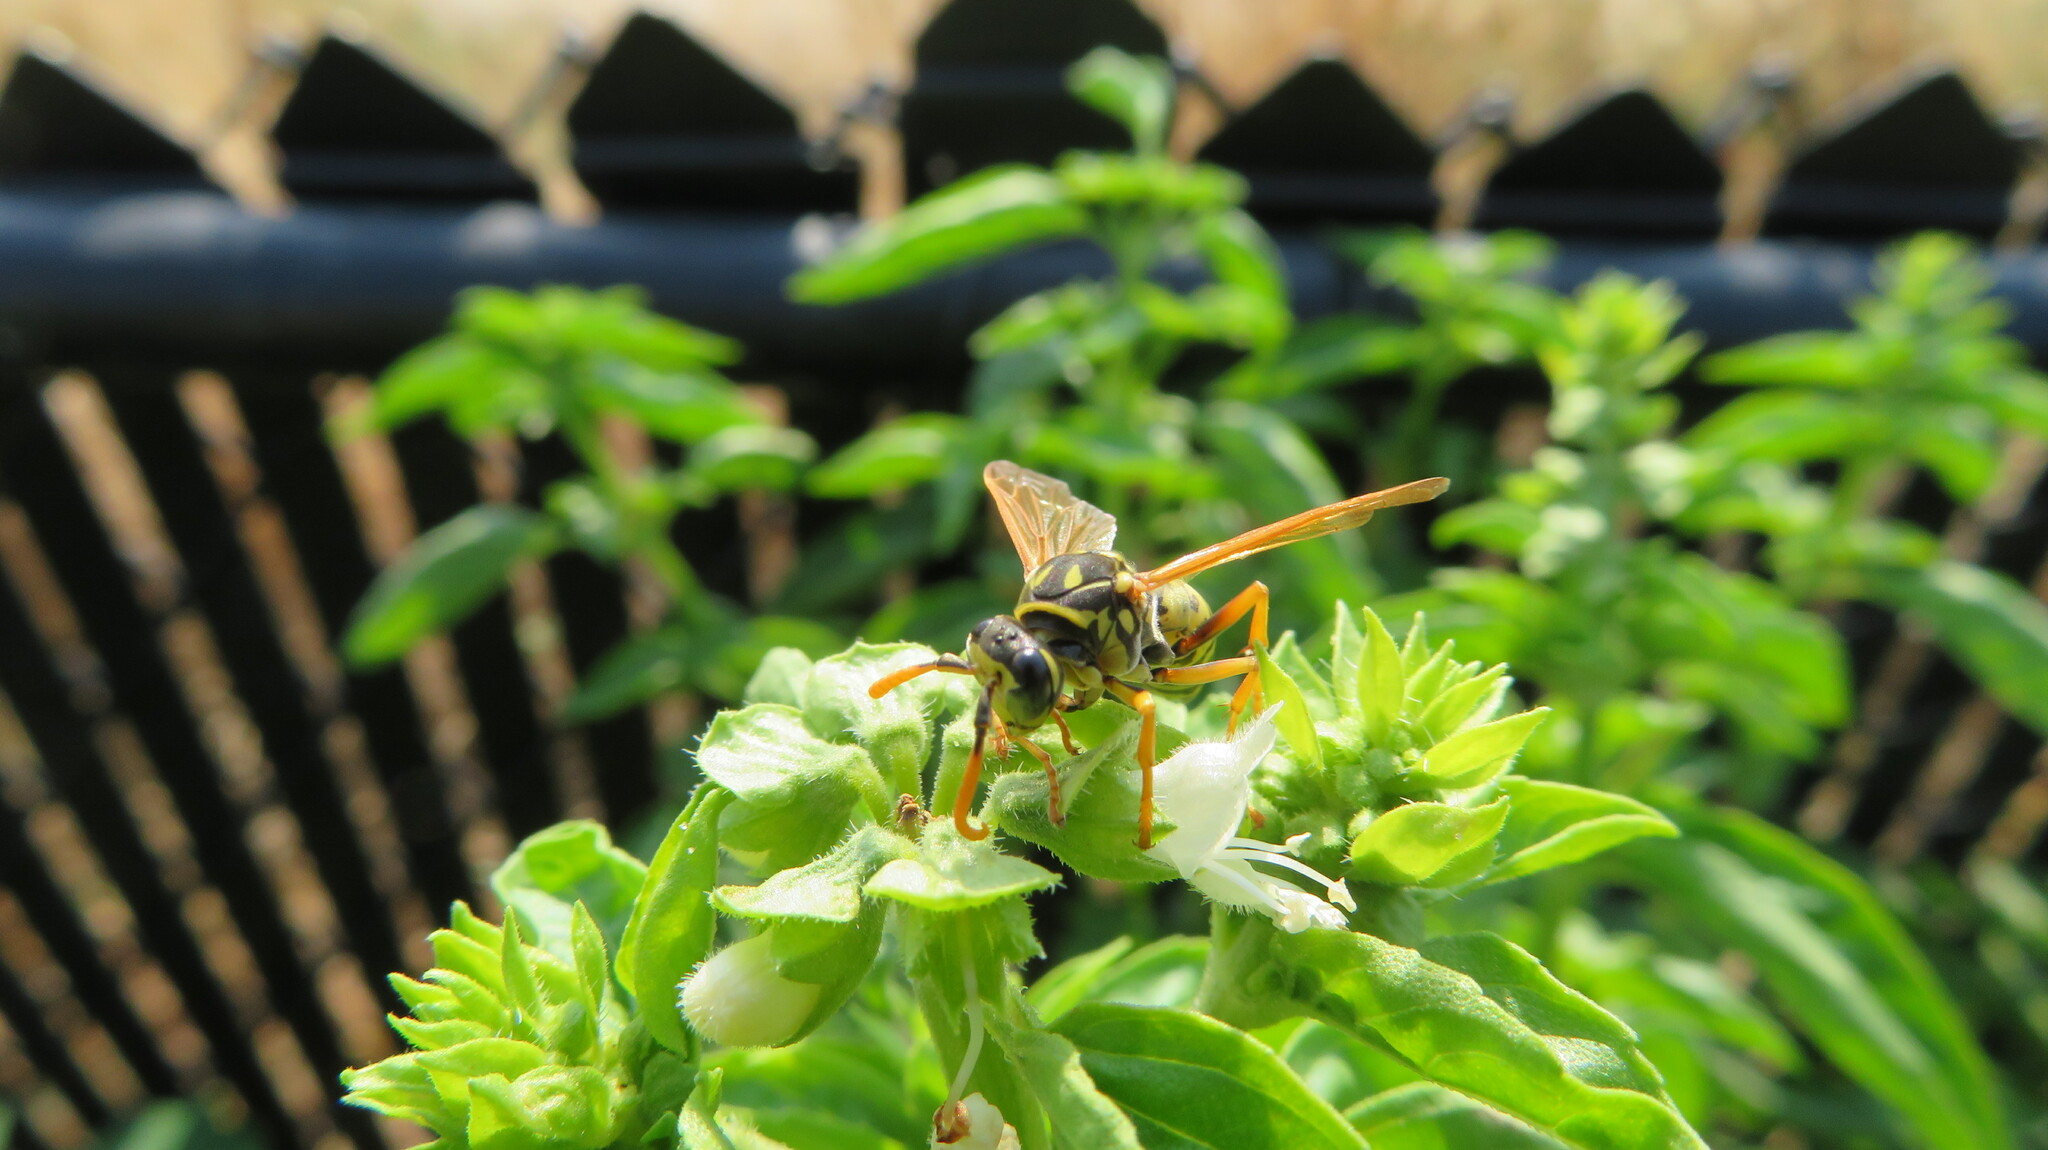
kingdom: Animalia
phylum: Arthropoda
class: Insecta
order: Hymenoptera
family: Eumenidae
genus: Polistes
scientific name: Polistes dominula
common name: Paper wasp
